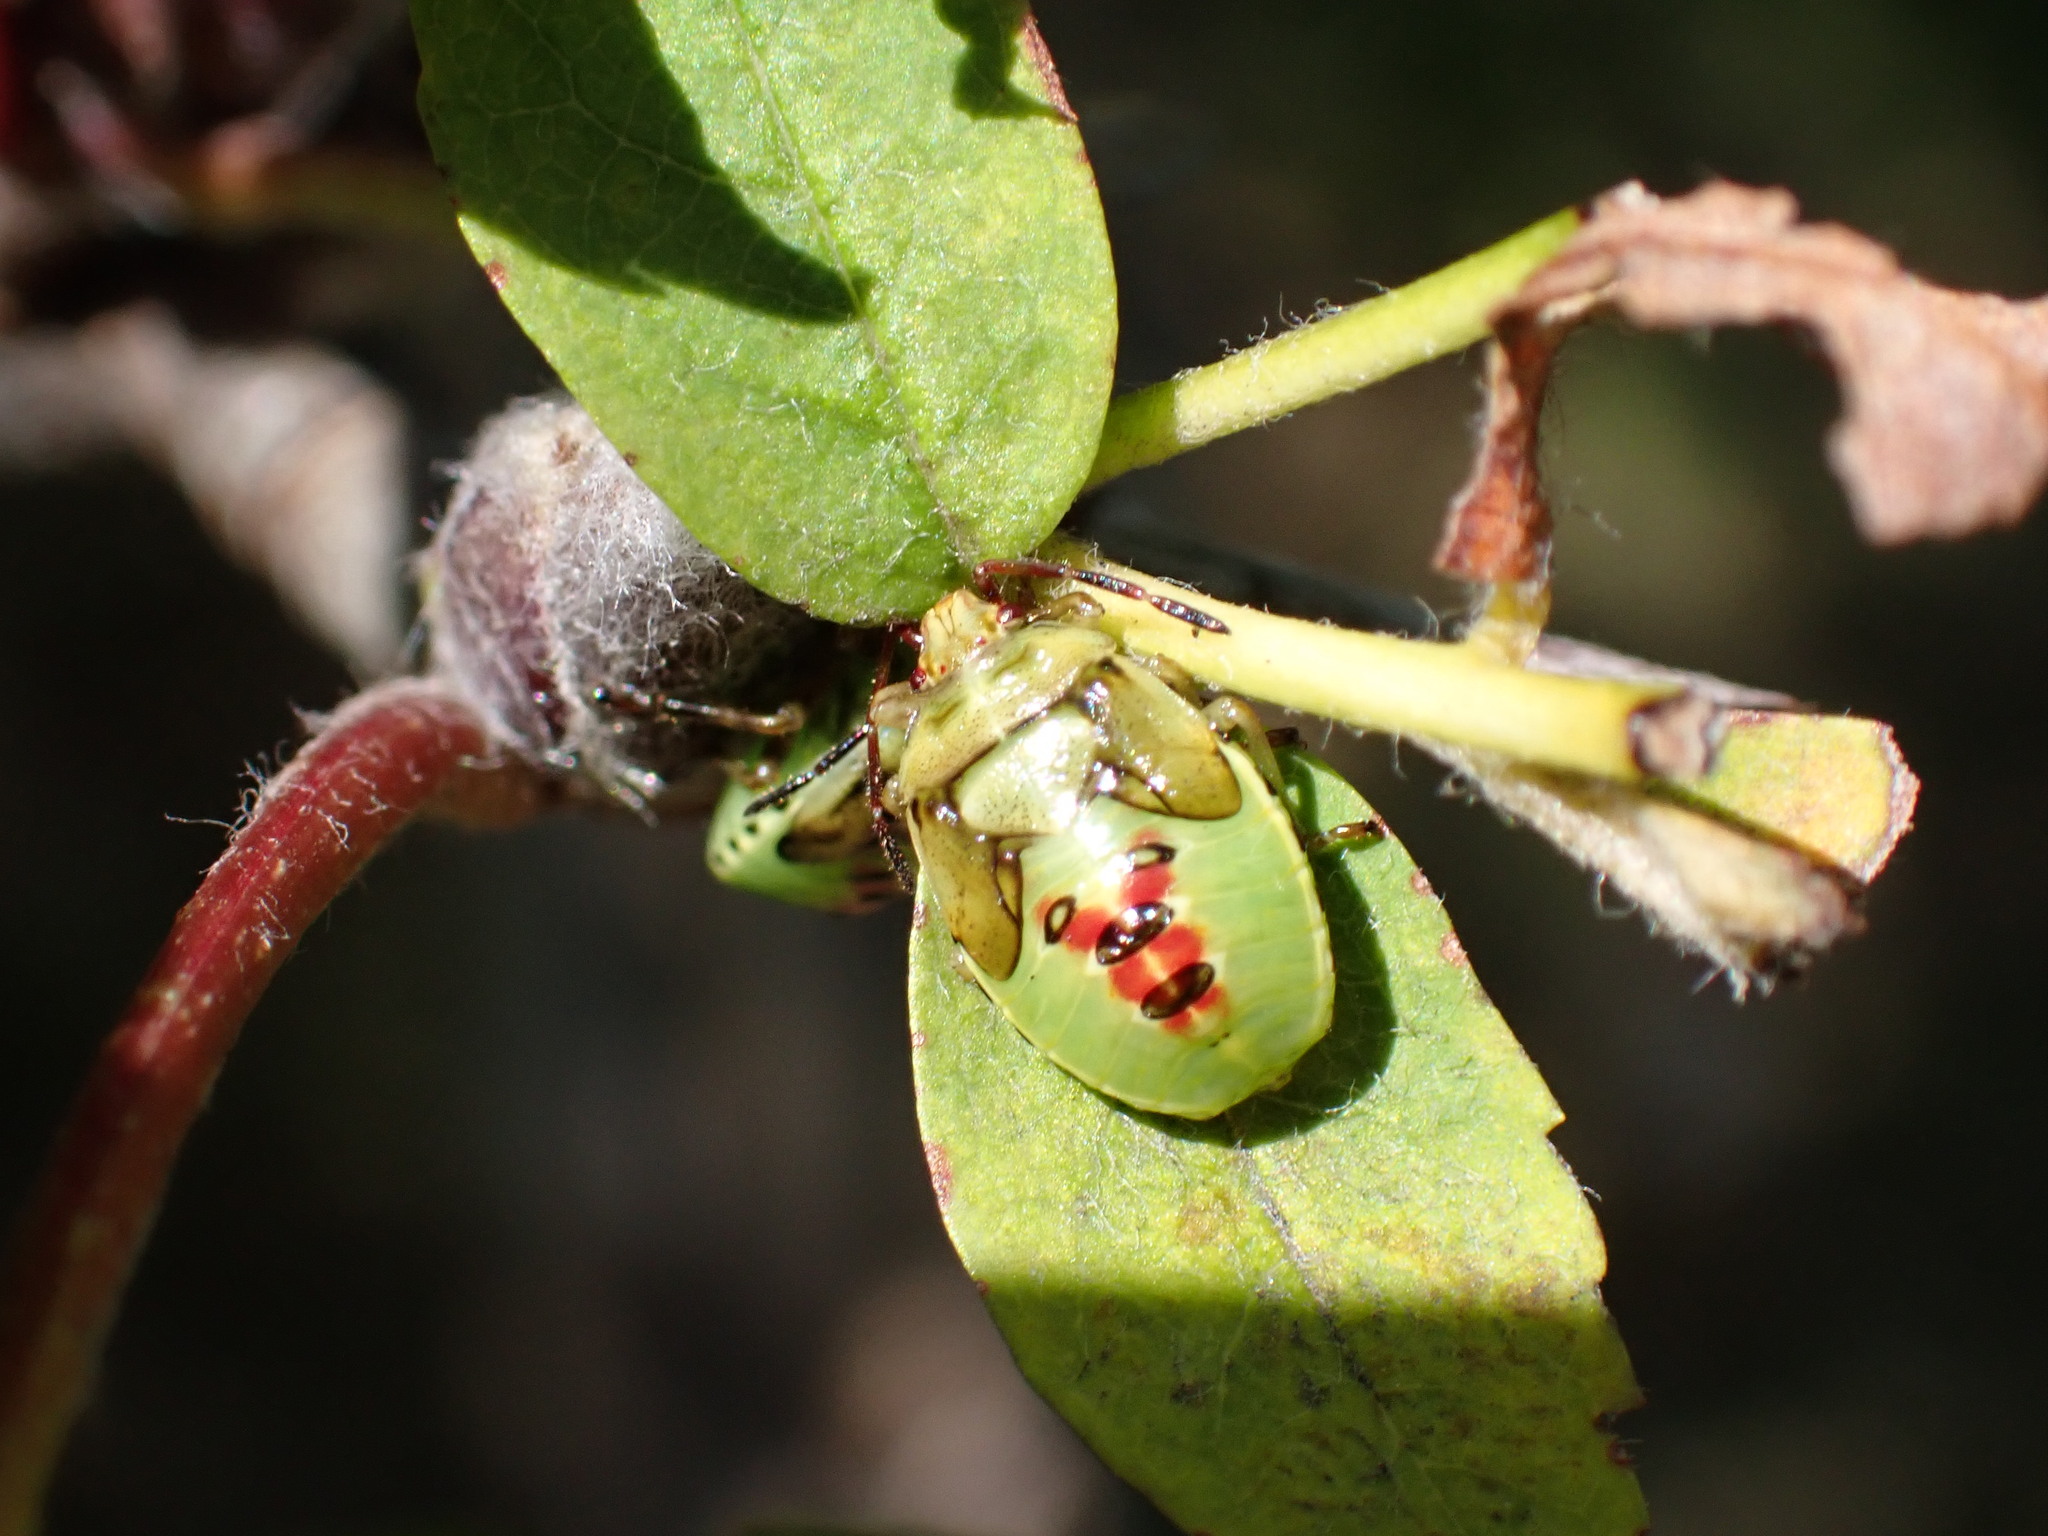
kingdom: Animalia
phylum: Arthropoda
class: Insecta
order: Hemiptera
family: Acanthosomatidae
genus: Elasmostethus
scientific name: Elasmostethus interstinctus
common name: Birch shieldbug
